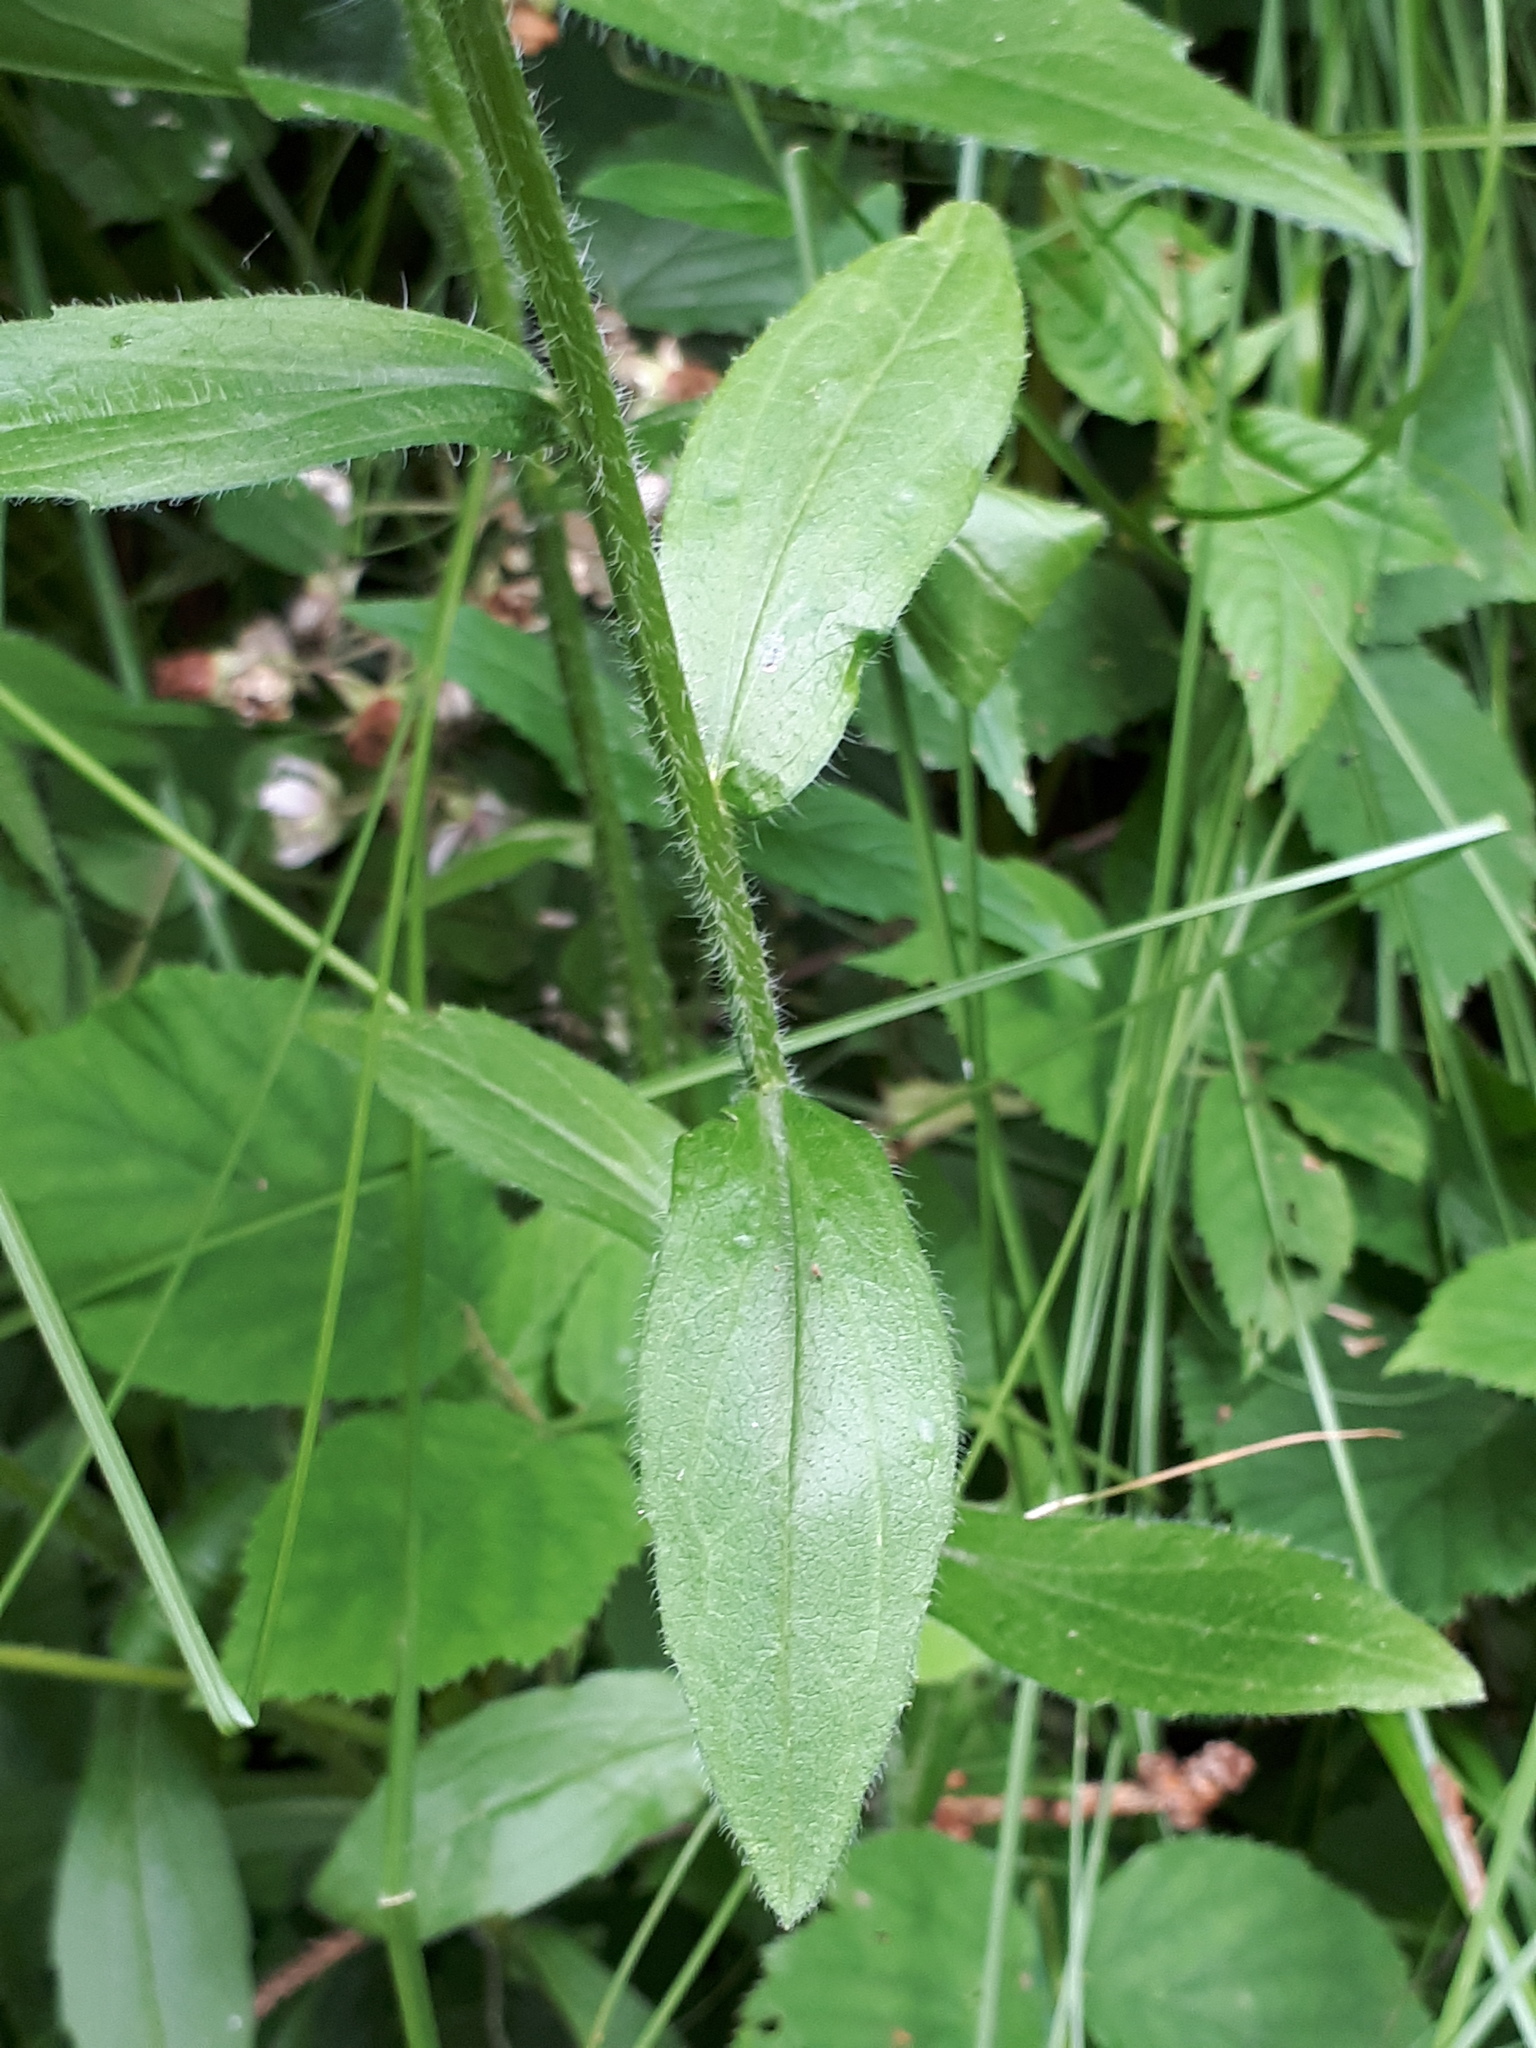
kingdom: Plantae
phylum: Tracheophyta
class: Magnoliopsida
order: Asterales
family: Asteraceae
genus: Erigeron
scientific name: Erigeron annuus
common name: Tall fleabane
